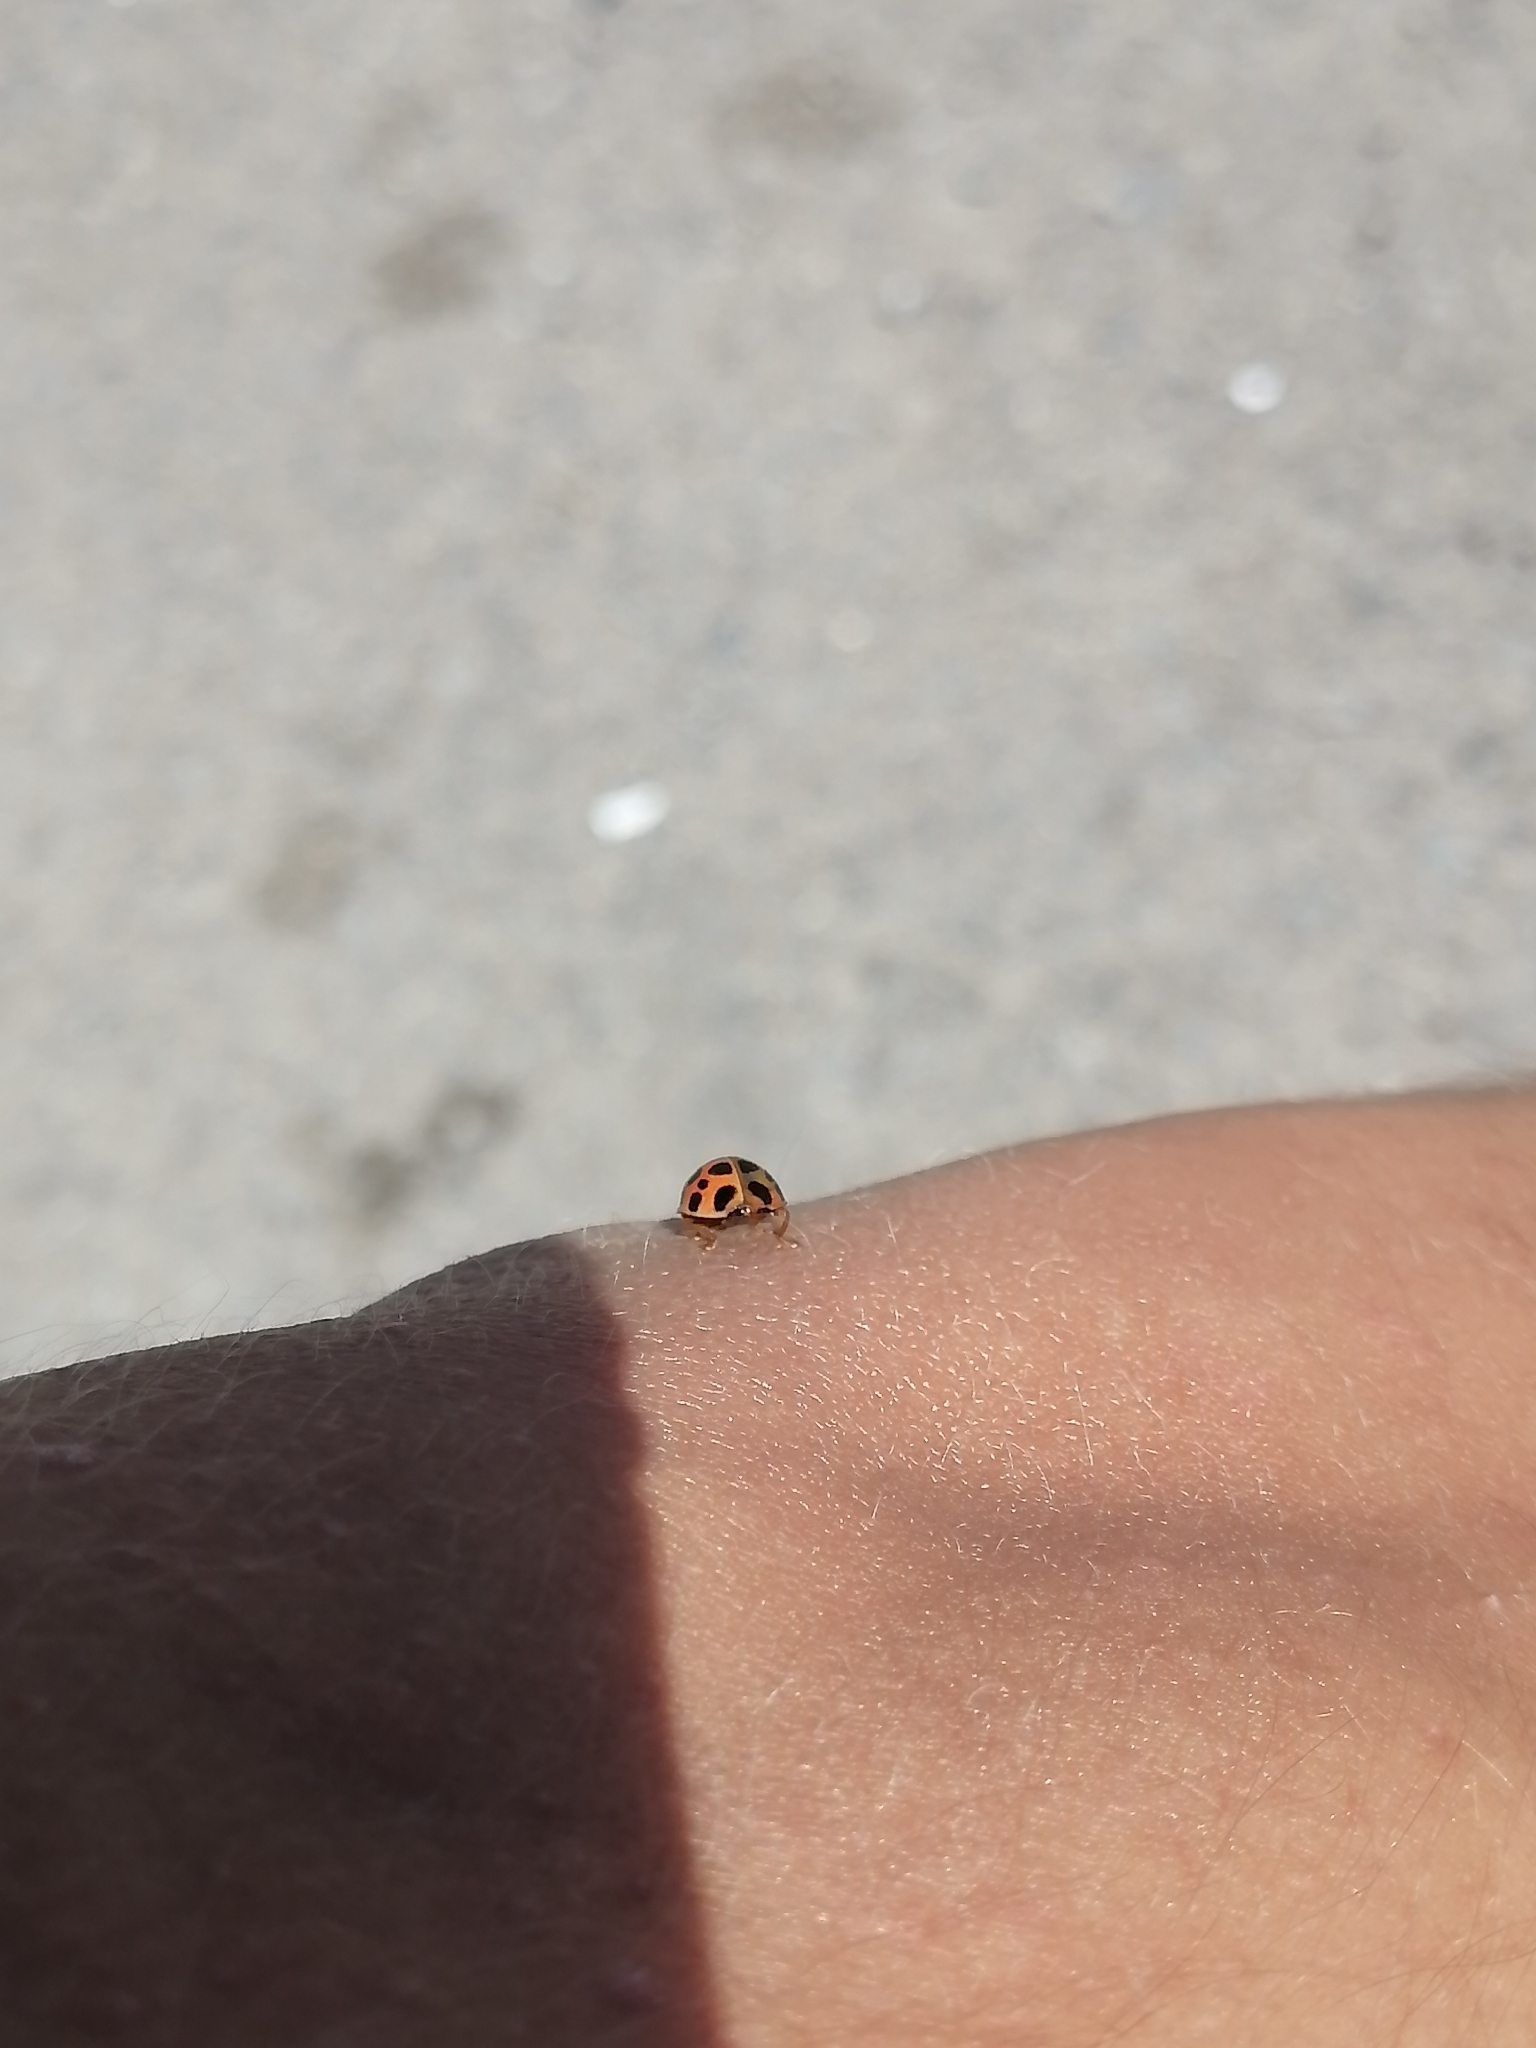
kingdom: Animalia
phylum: Arthropoda
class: Insecta
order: Coleoptera
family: Coccinellidae
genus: Harmonia
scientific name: Harmonia axyridis
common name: Harlequin ladybird
